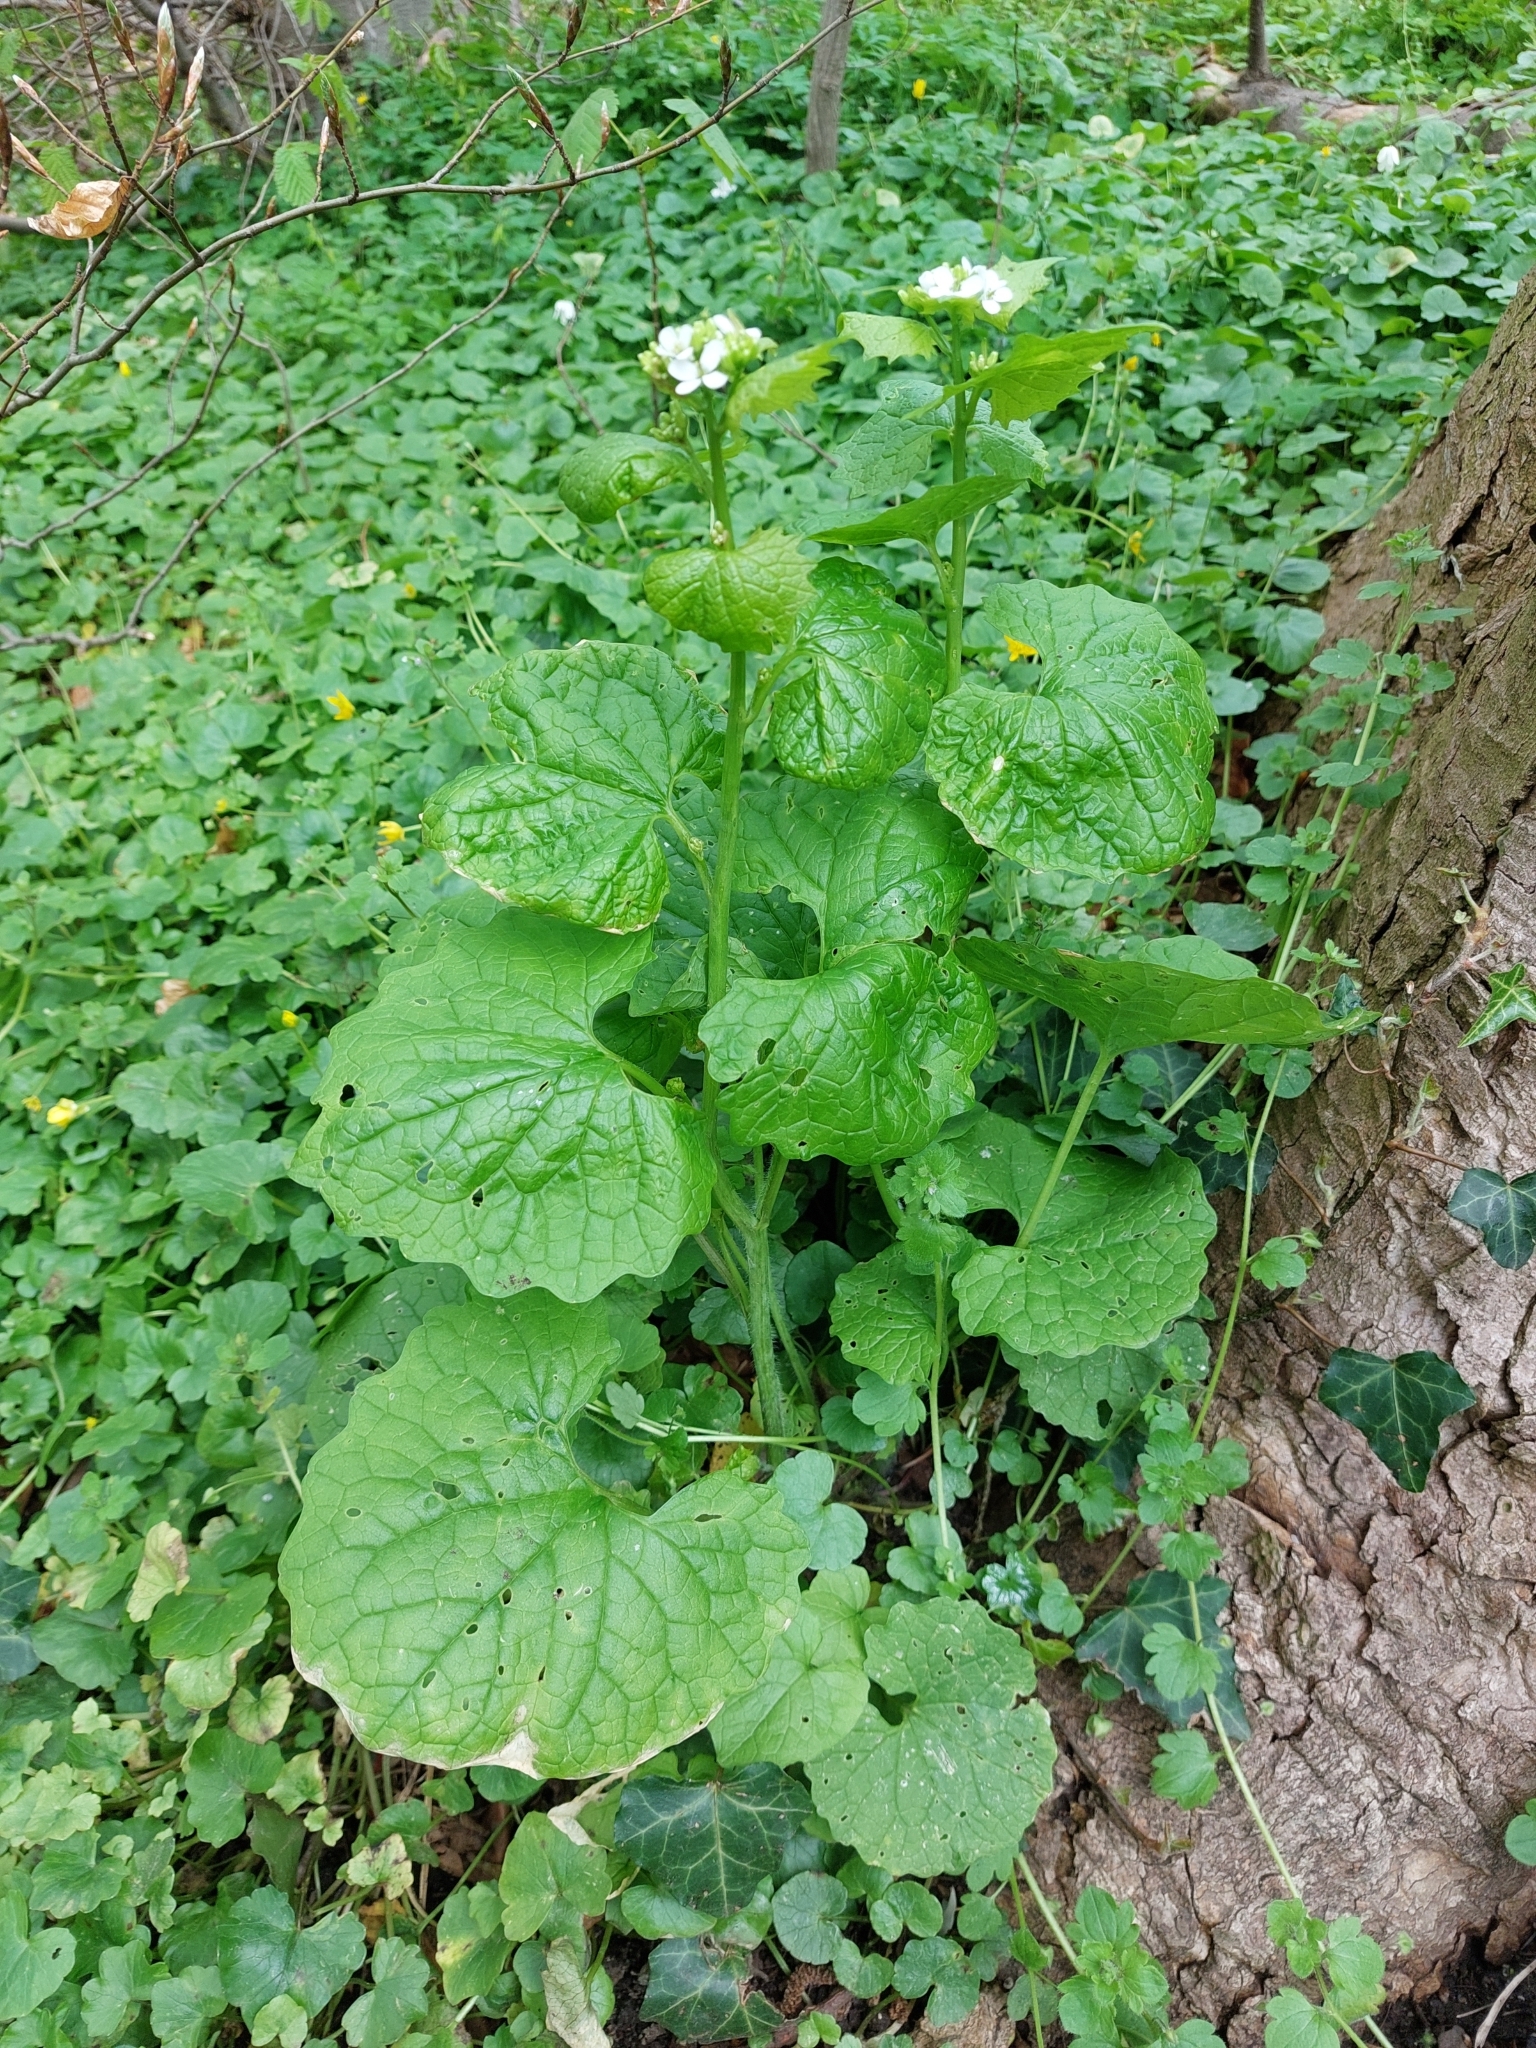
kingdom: Plantae
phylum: Tracheophyta
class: Magnoliopsida
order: Brassicales
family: Brassicaceae
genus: Alliaria
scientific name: Alliaria petiolata
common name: Garlic mustard
